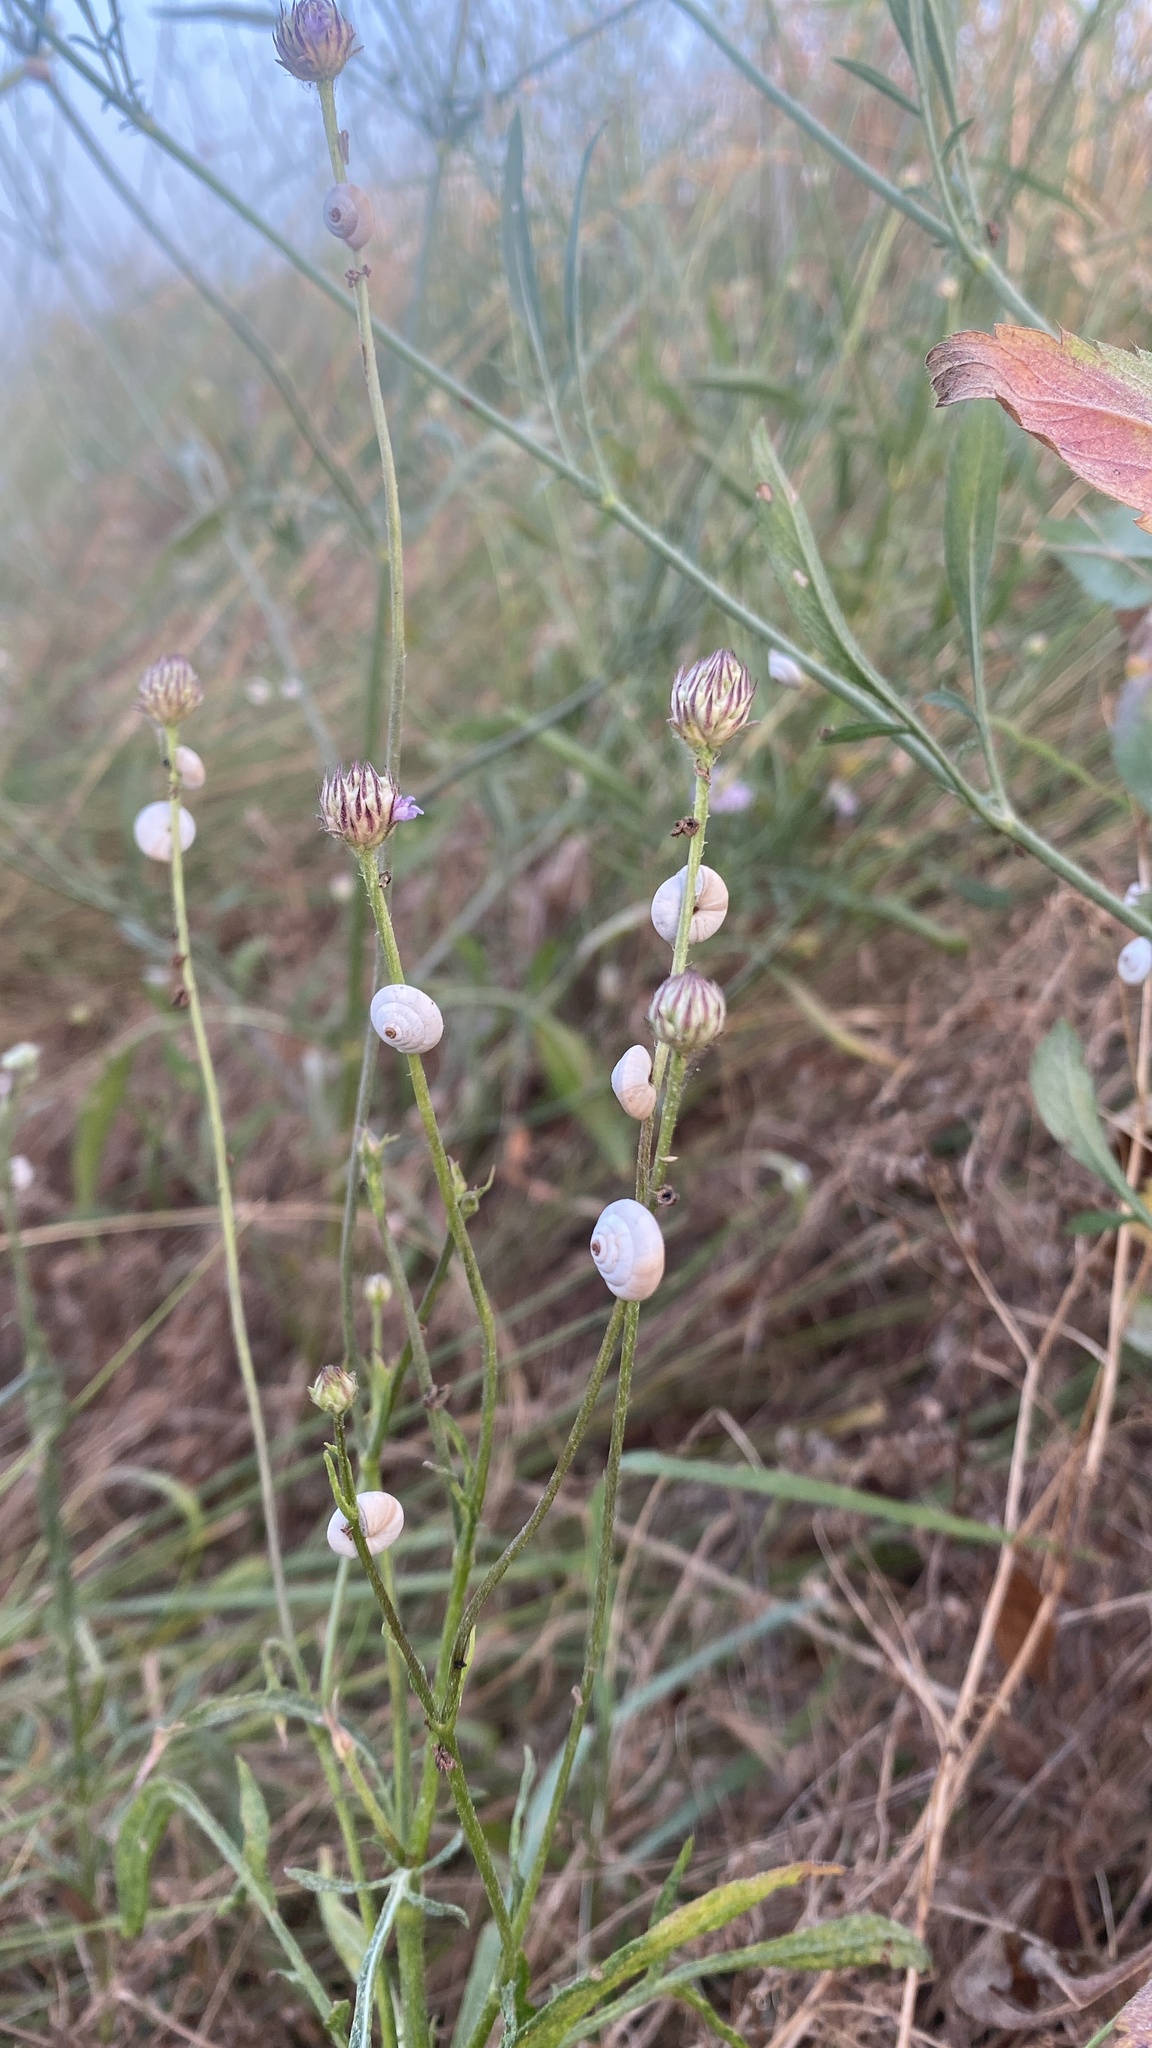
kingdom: Animalia
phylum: Mollusca
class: Gastropoda
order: Stylommatophora
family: Geomitridae
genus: Trochoidea
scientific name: Trochoidea pyramidata
